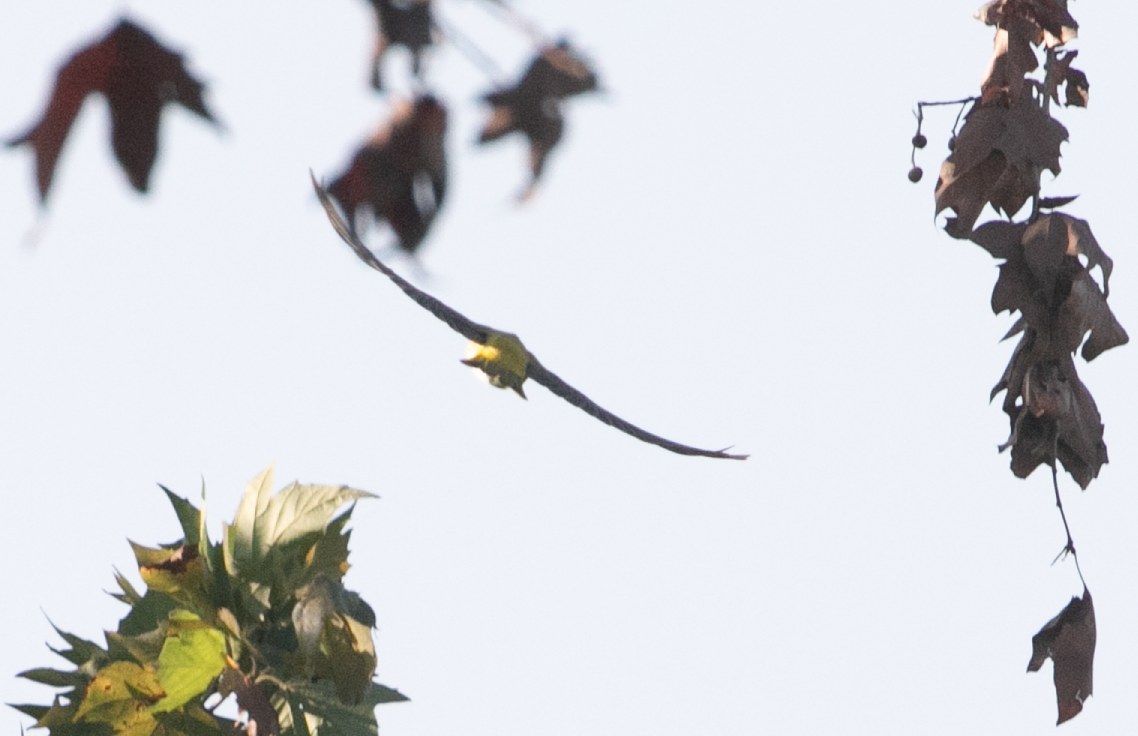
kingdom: Animalia
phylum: Chordata
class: Aves
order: Passeriformes
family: Oriolidae
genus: Oriolus
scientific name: Oriolus oriolus
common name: Eurasian golden oriole
